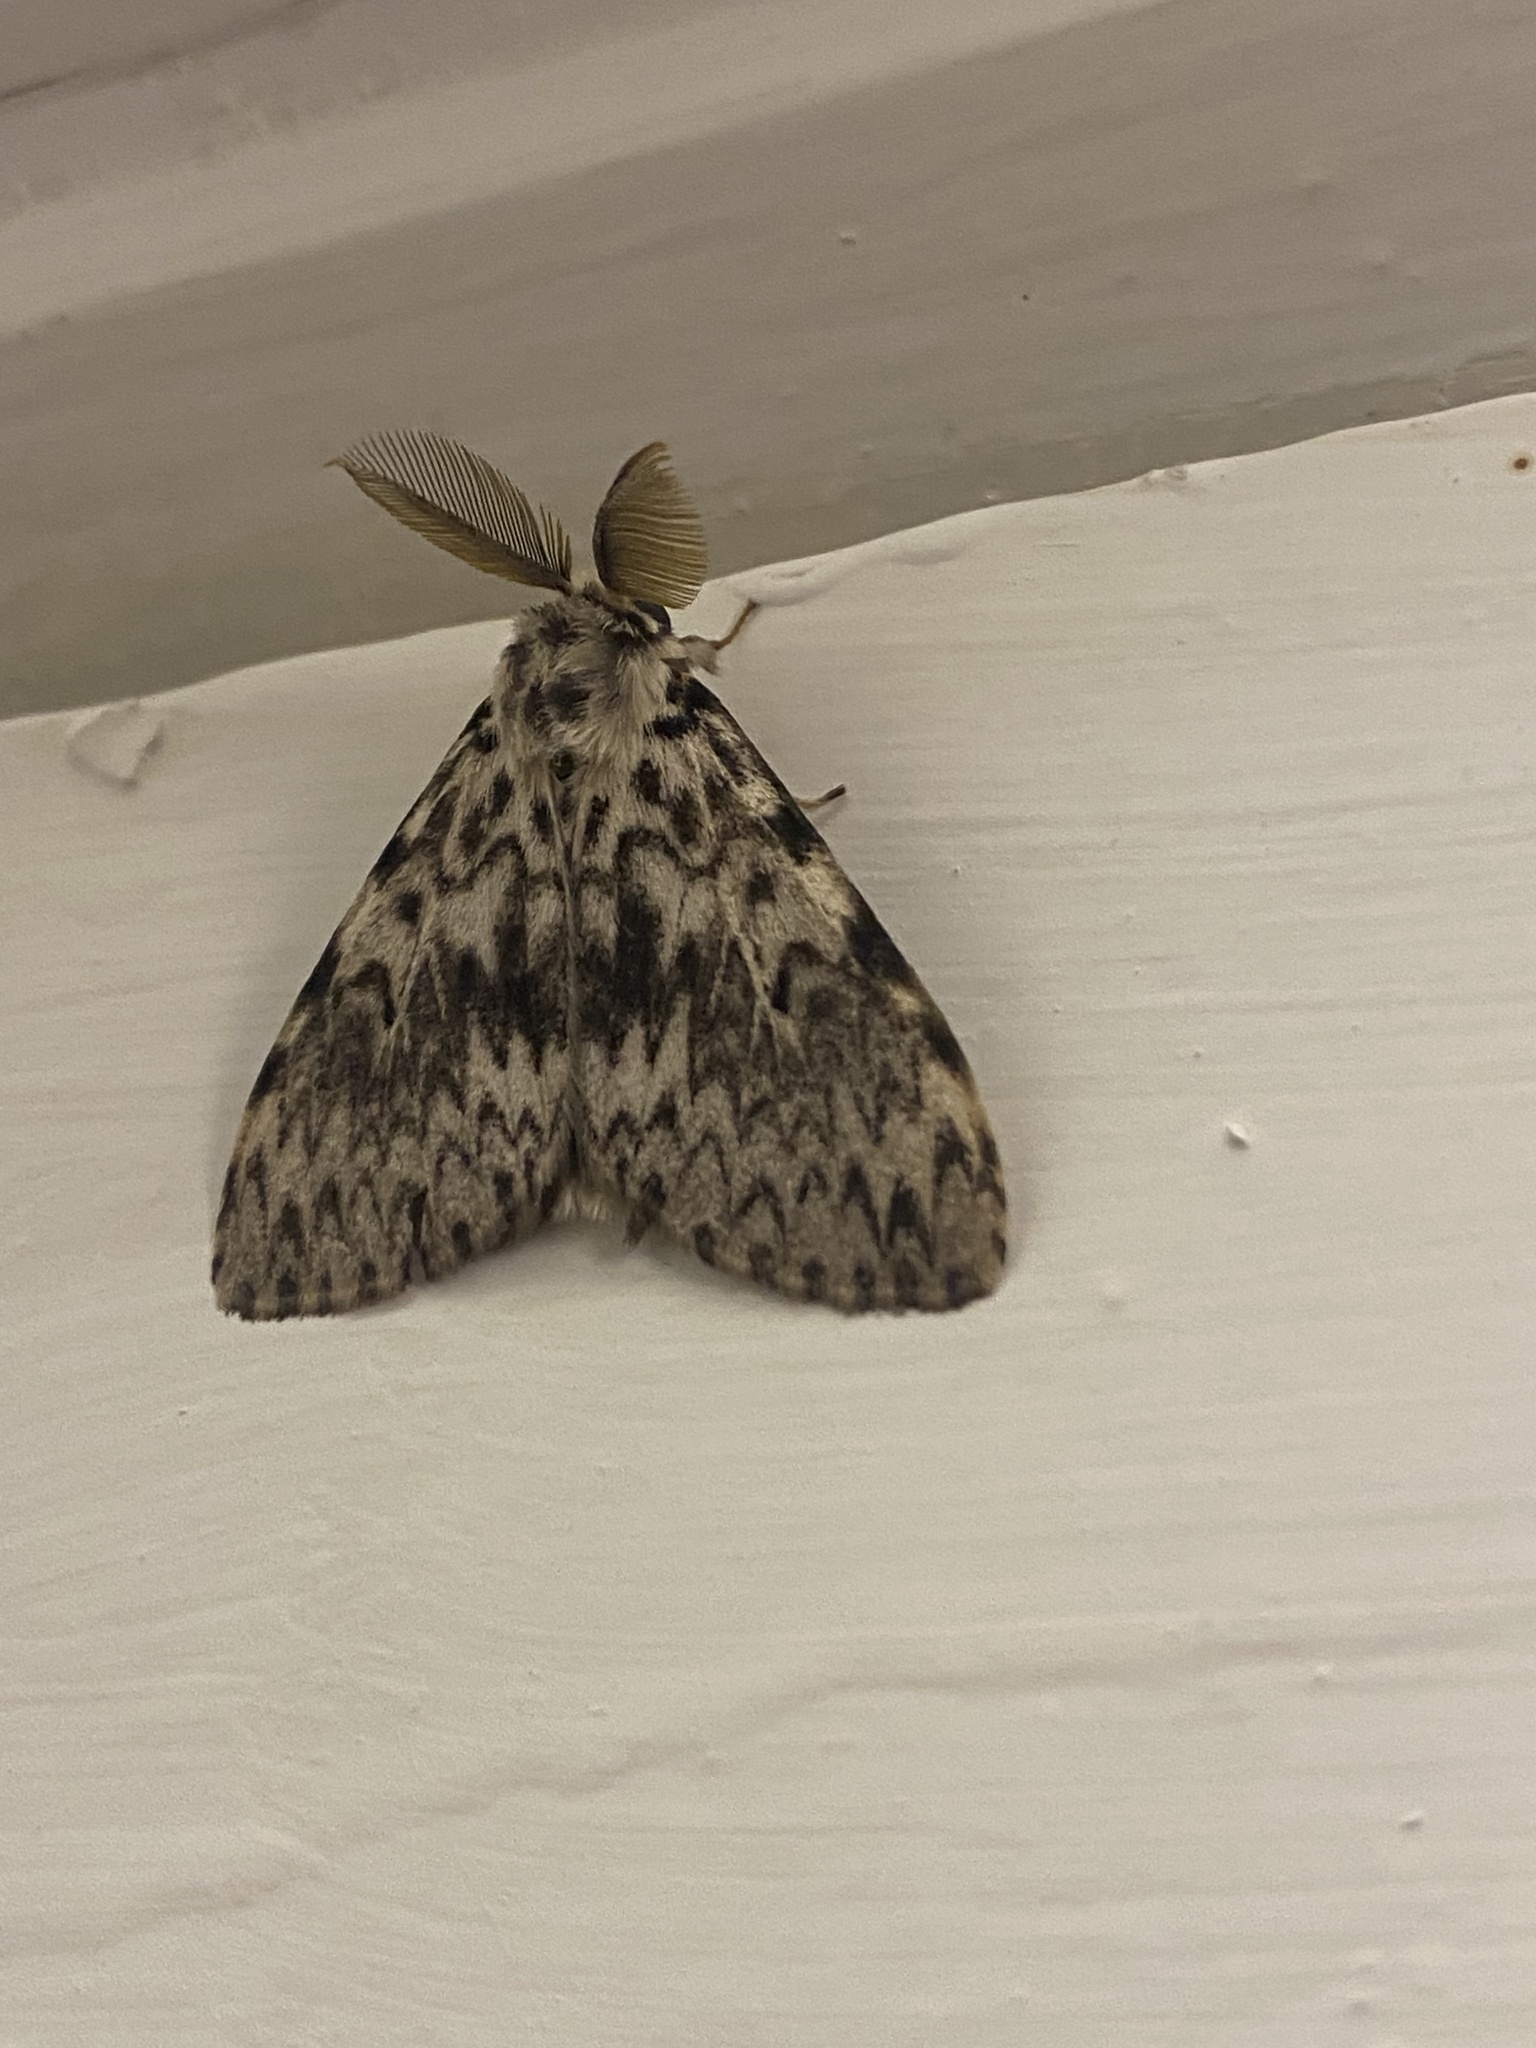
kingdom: Animalia
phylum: Arthropoda
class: Insecta
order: Lepidoptera
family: Erebidae
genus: Lymantria
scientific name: Lymantria monacha
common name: Black arches
